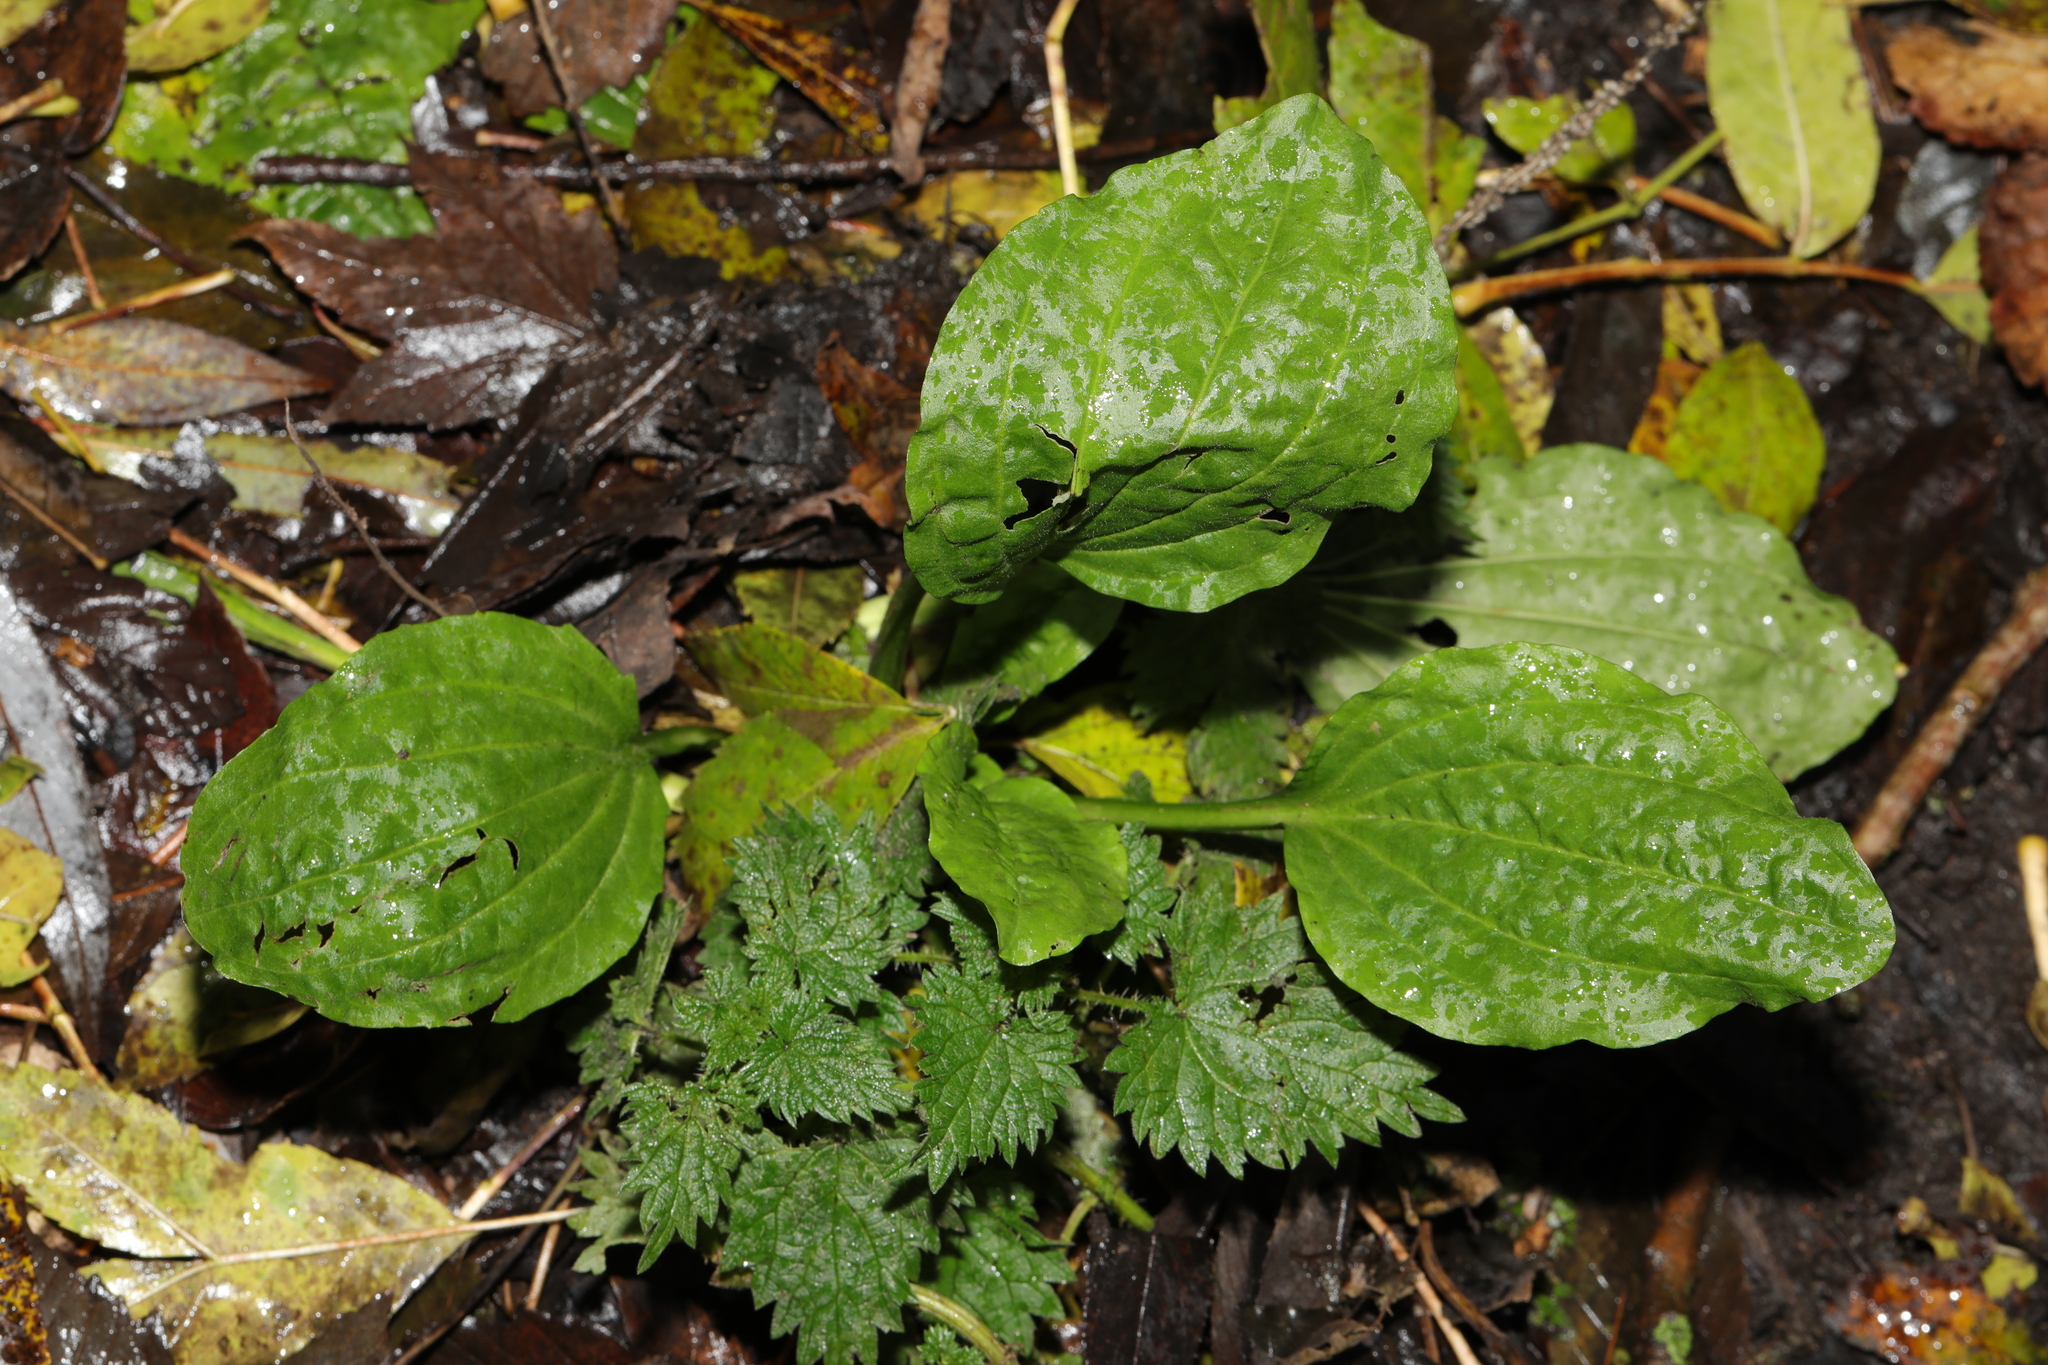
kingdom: Plantae
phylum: Tracheophyta
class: Magnoliopsida
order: Lamiales
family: Plantaginaceae
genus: Plantago
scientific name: Plantago major
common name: Common plantain
